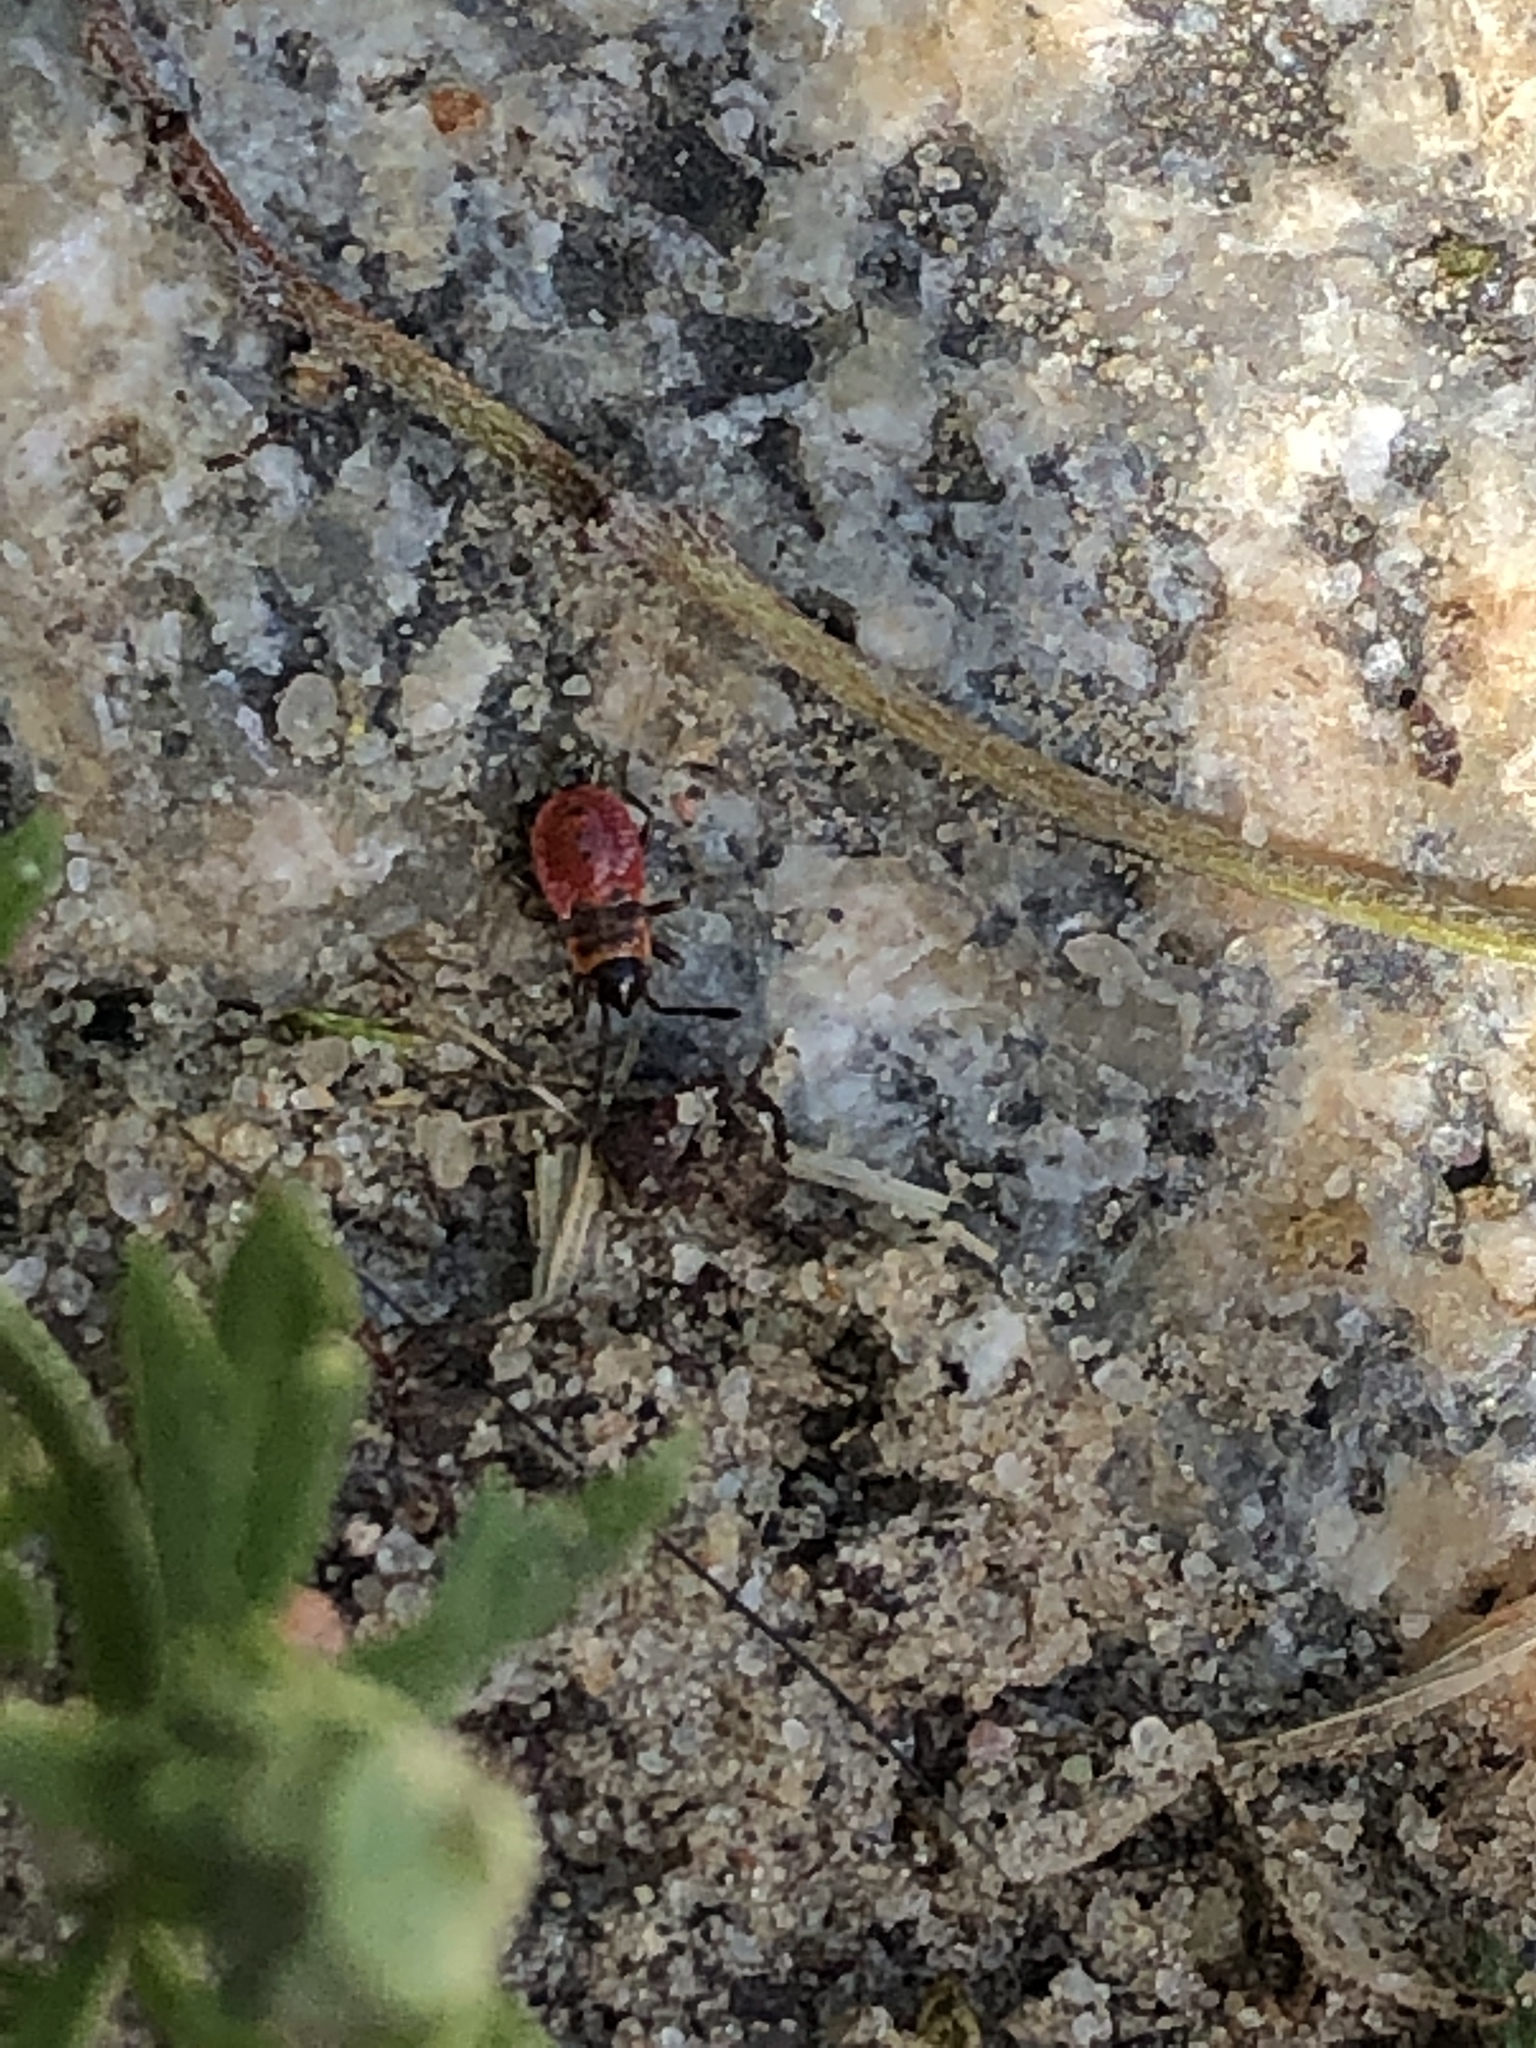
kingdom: Animalia
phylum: Arthropoda
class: Insecta
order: Hemiptera
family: Pyrrhocoridae
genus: Pyrrhocoris
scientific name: Pyrrhocoris apterus
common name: Firebug
